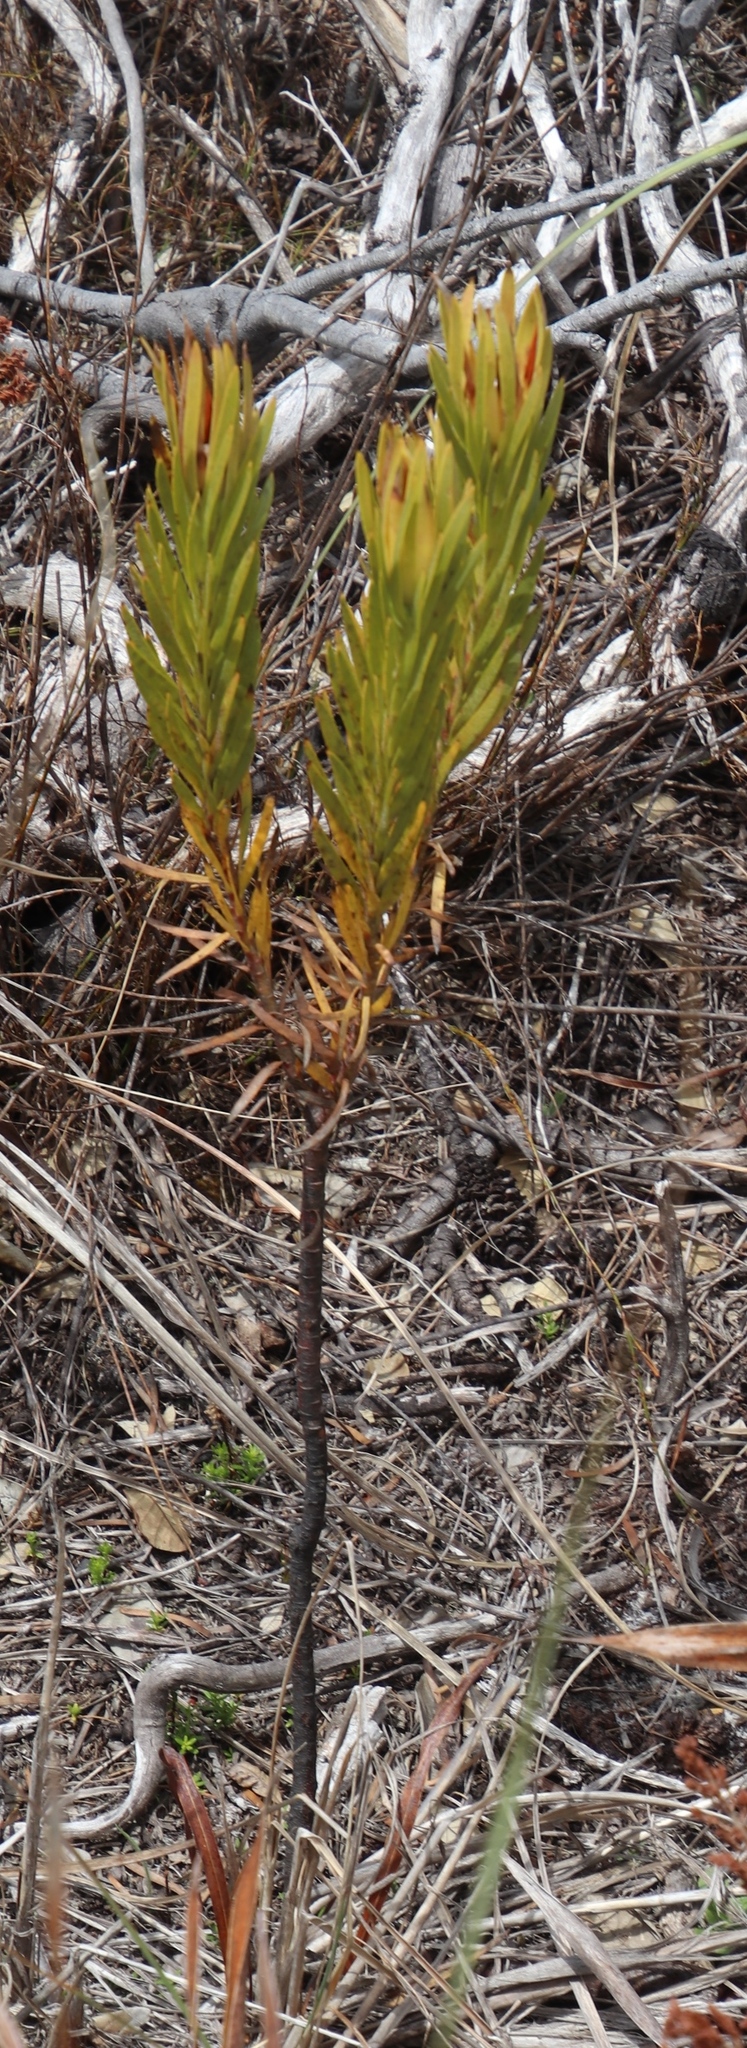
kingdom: Plantae
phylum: Tracheophyta
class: Magnoliopsida
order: Proteales
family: Proteaceae
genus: Leucadendron
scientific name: Leucadendron xanthoconus
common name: Sickle-leaf conebush
